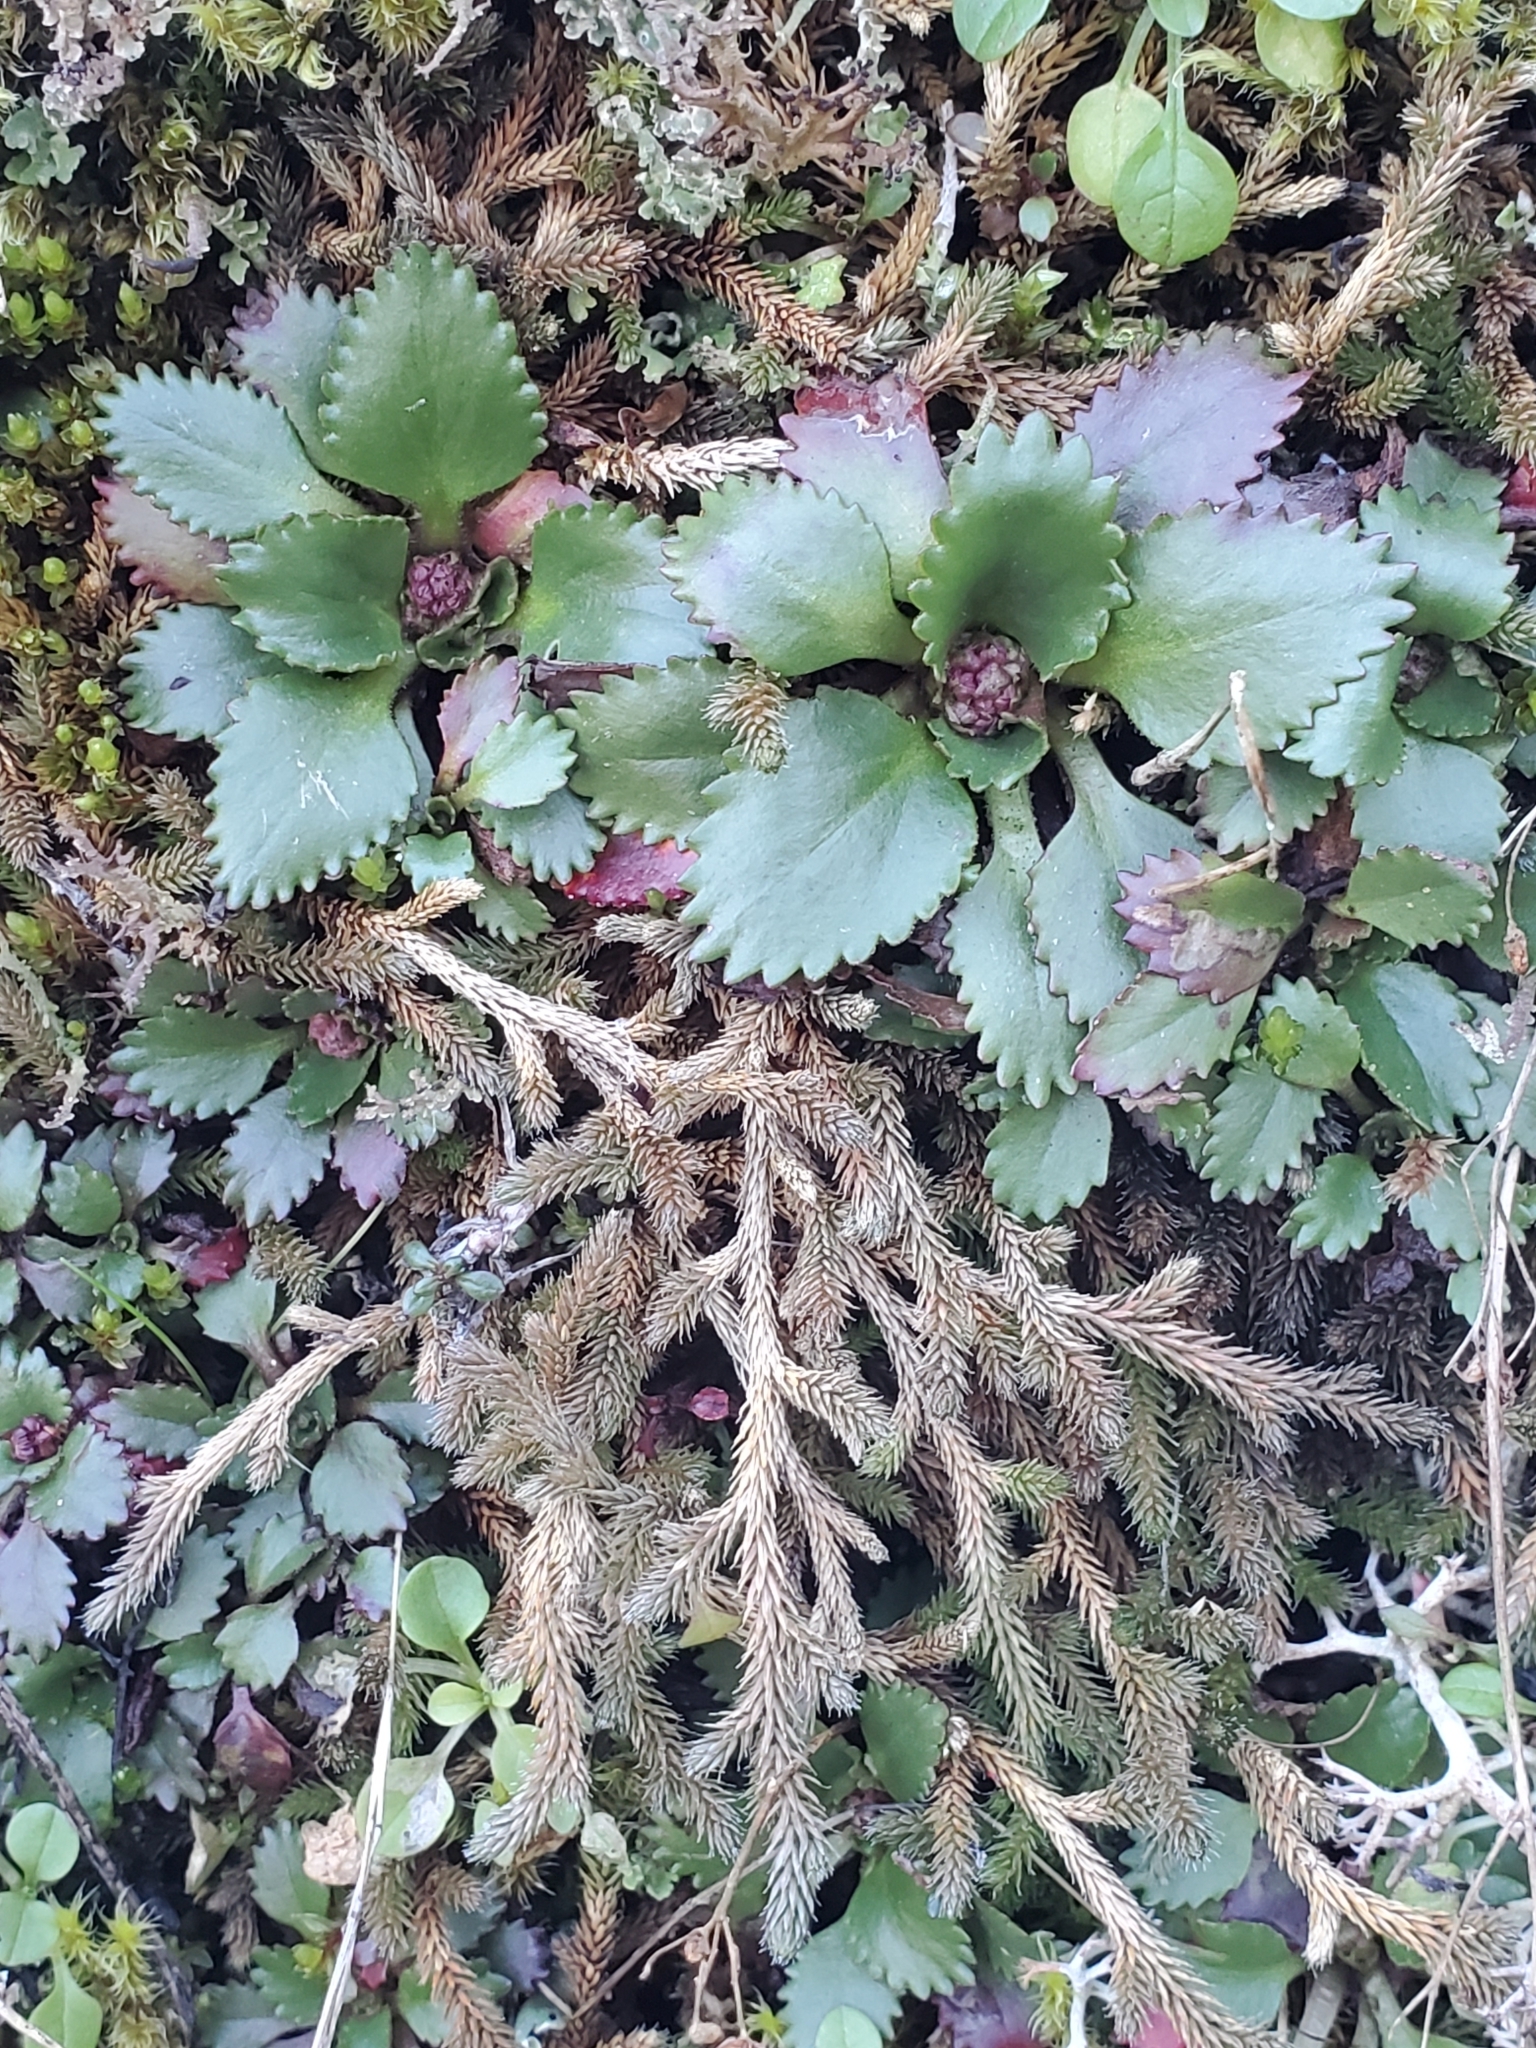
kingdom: Plantae
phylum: Tracheophyta
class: Magnoliopsida
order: Saxifragales
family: Saxifragaceae
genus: Micranthes
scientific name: Micranthes rufidula
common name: Rustyhair saxifrage
